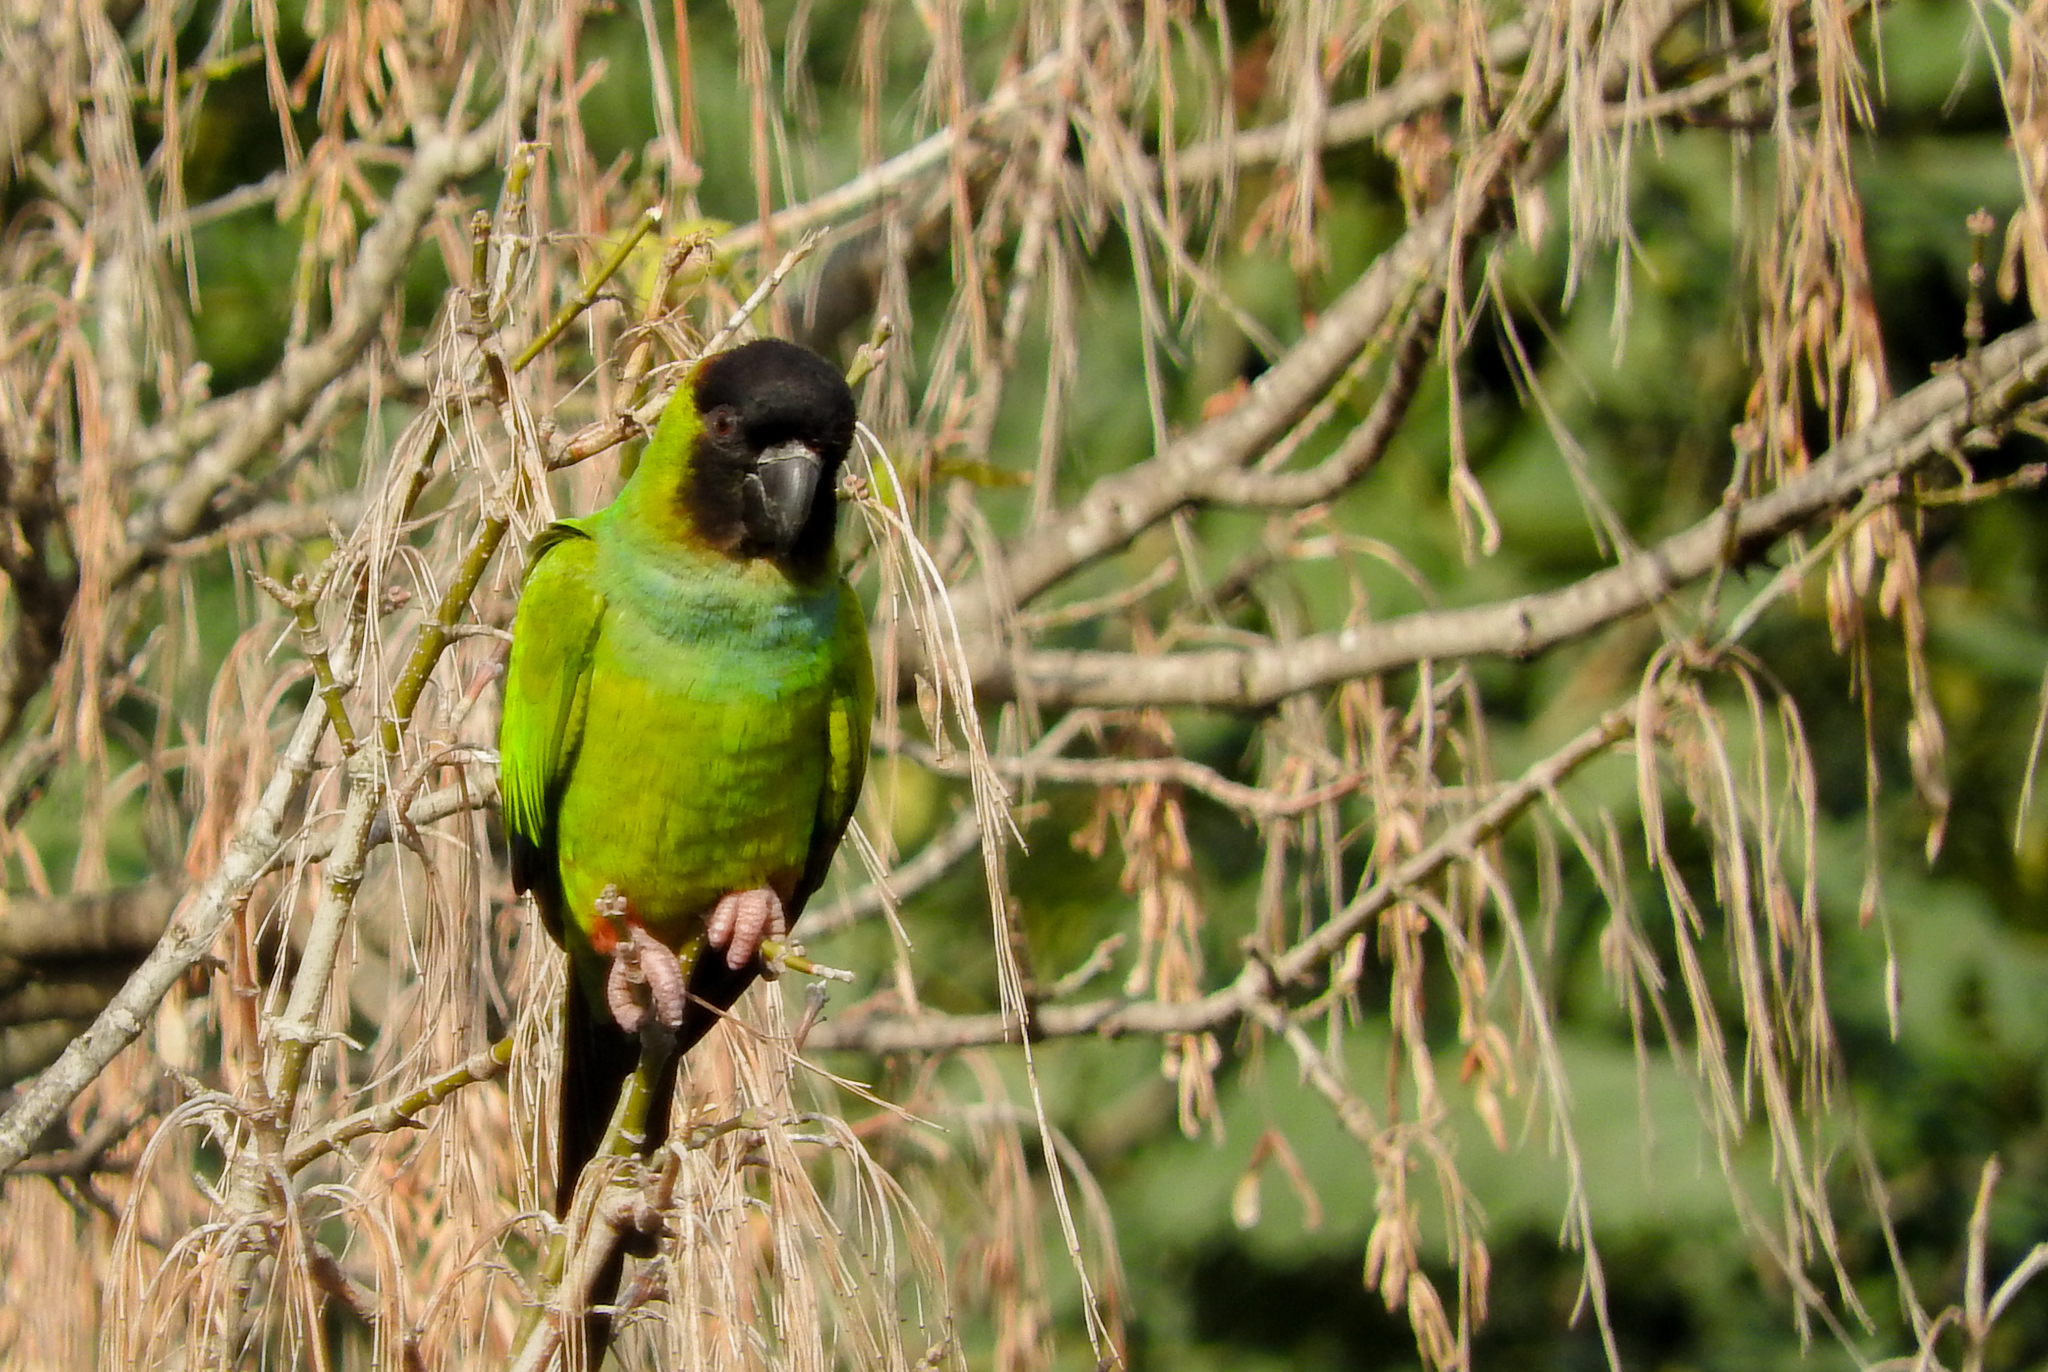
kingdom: Animalia
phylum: Chordata
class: Aves
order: Psittaciformes
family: Psittacidae
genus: Nandayus
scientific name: Nandayus nenday
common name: Nanday parakeet
